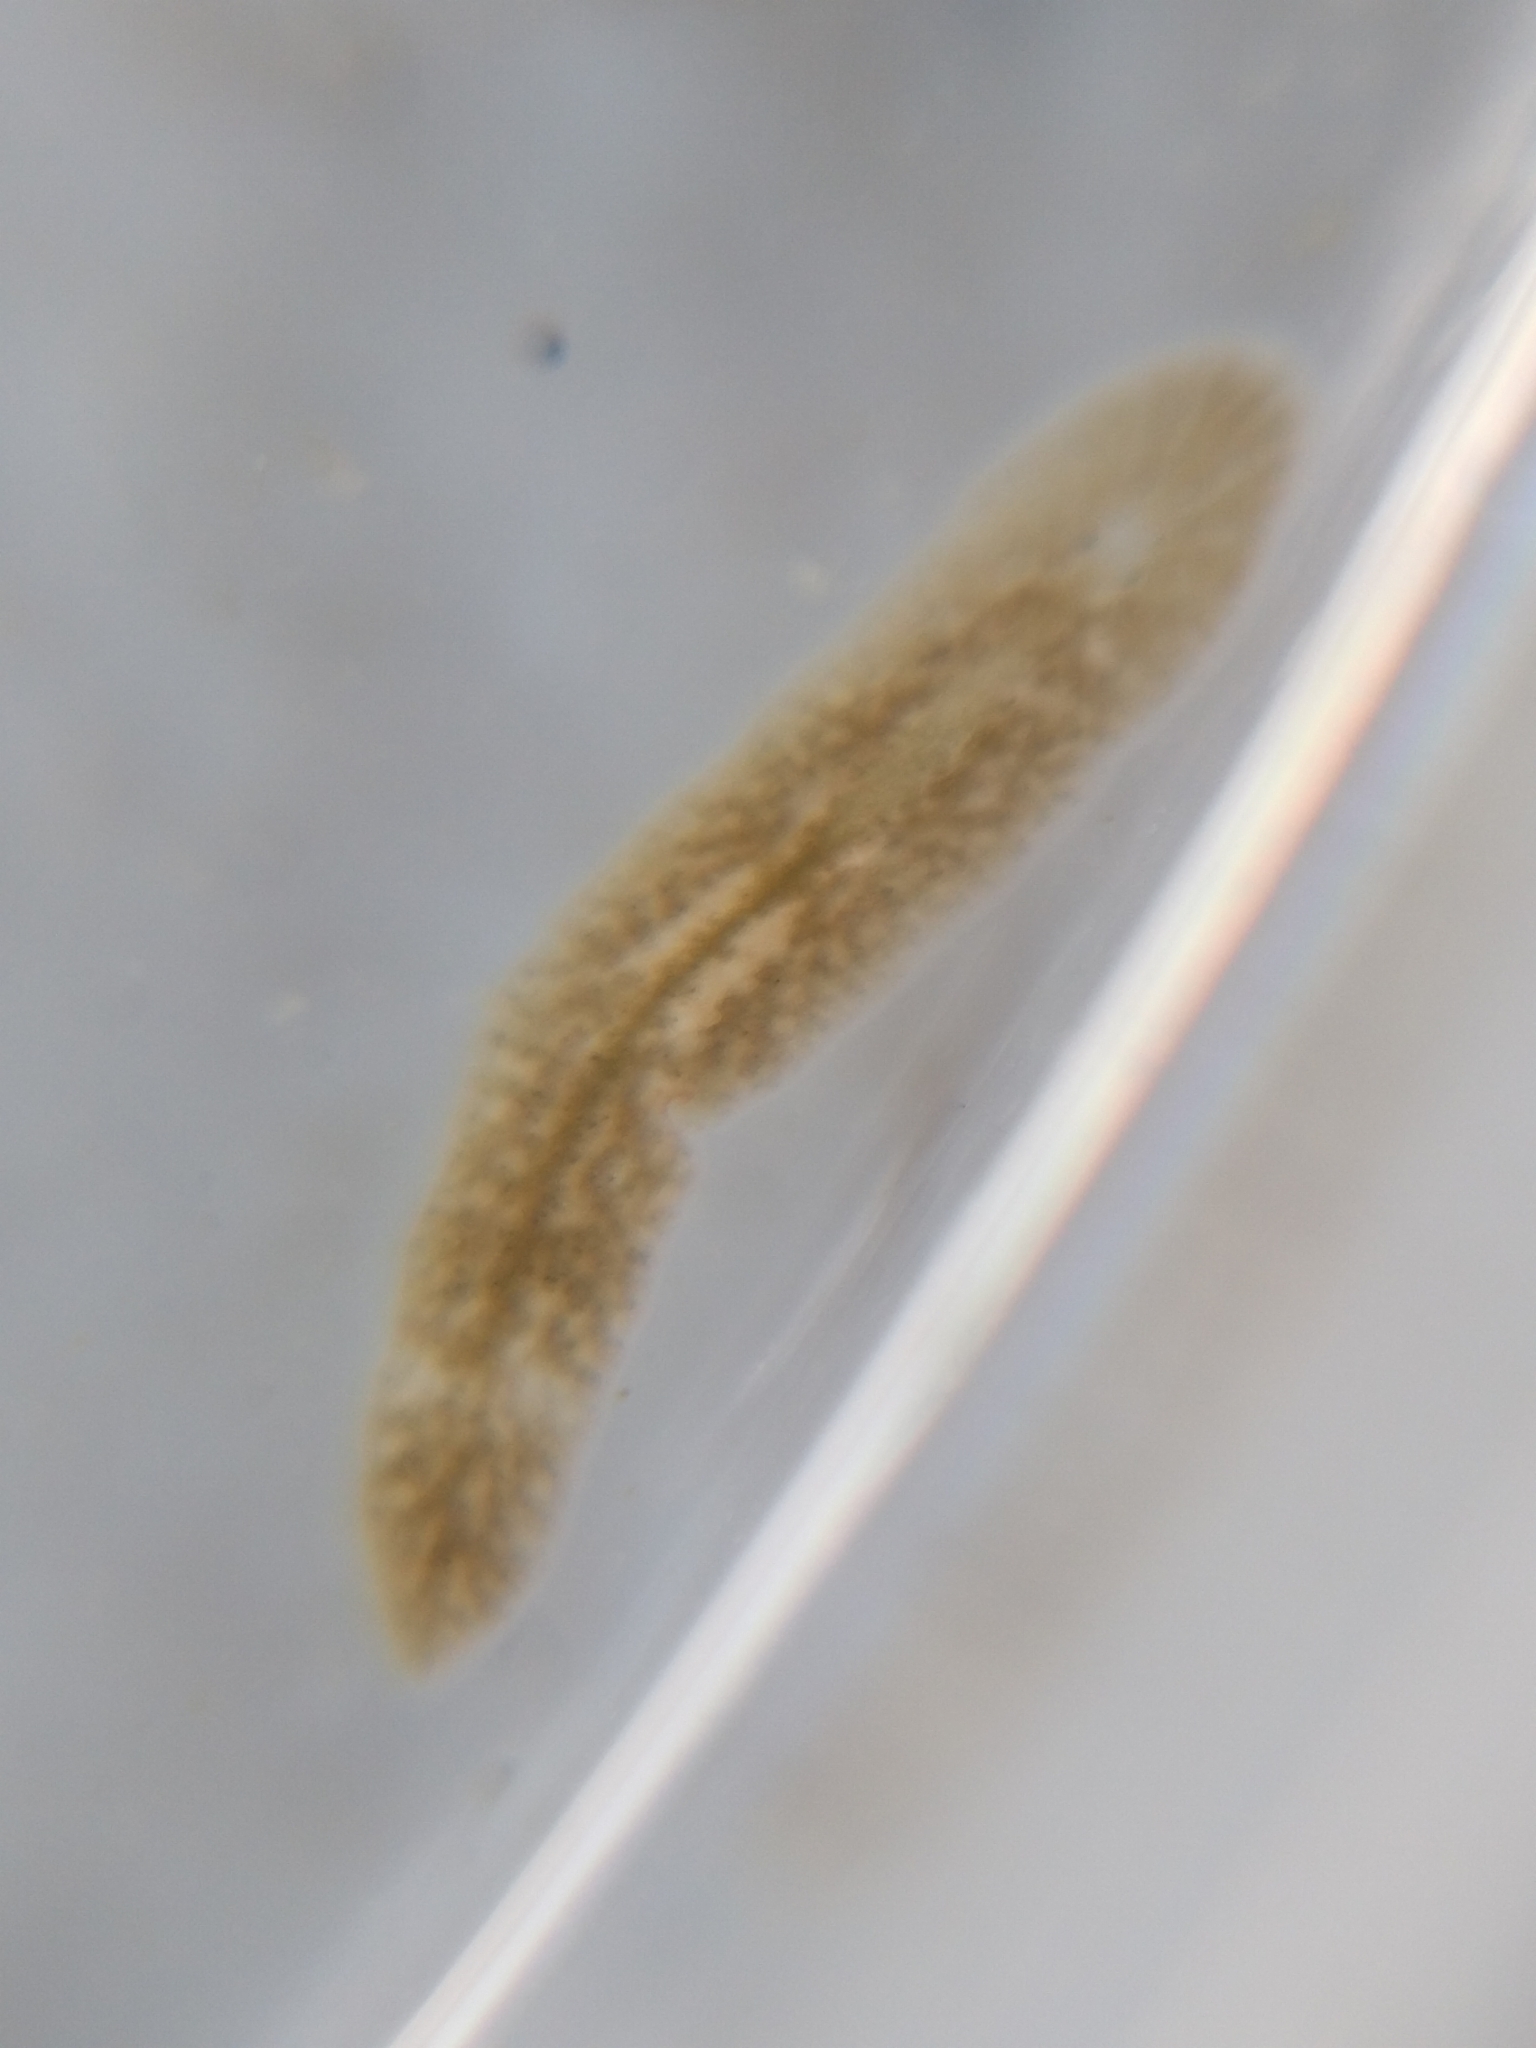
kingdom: Animalia
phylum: Platyhelminthes
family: Notocomplanidae
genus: Notocomplana
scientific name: Notocomplana acticola
